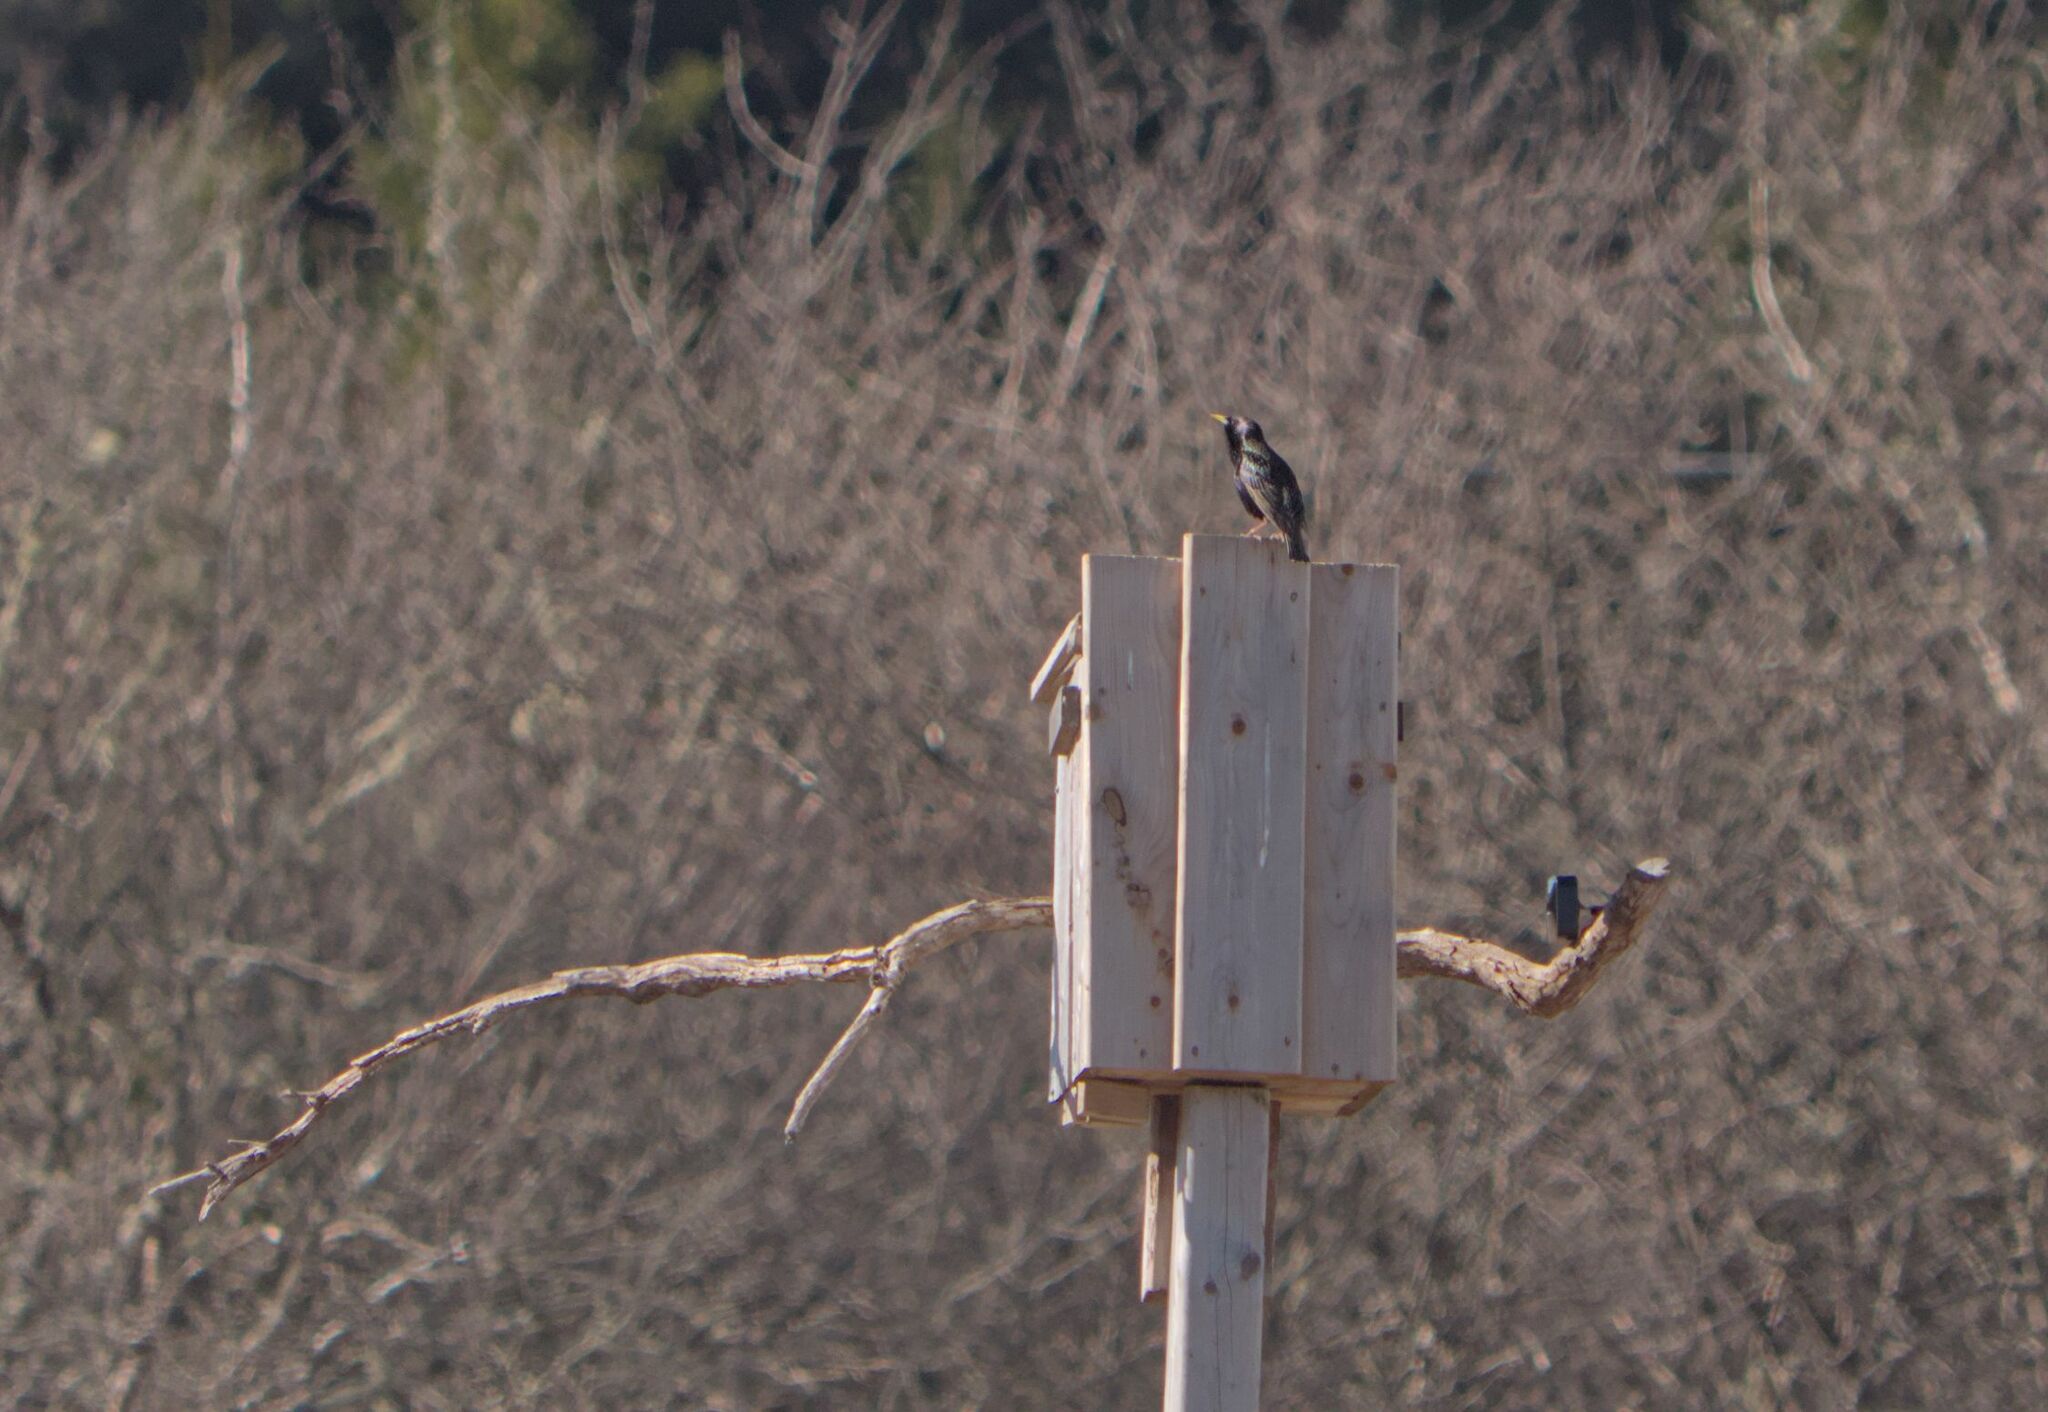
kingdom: Animalia
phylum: Chordata
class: Aves
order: Passeriformes
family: Sturnidae
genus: Sturnus
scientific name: Sturnus vulgaris
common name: Common starling
